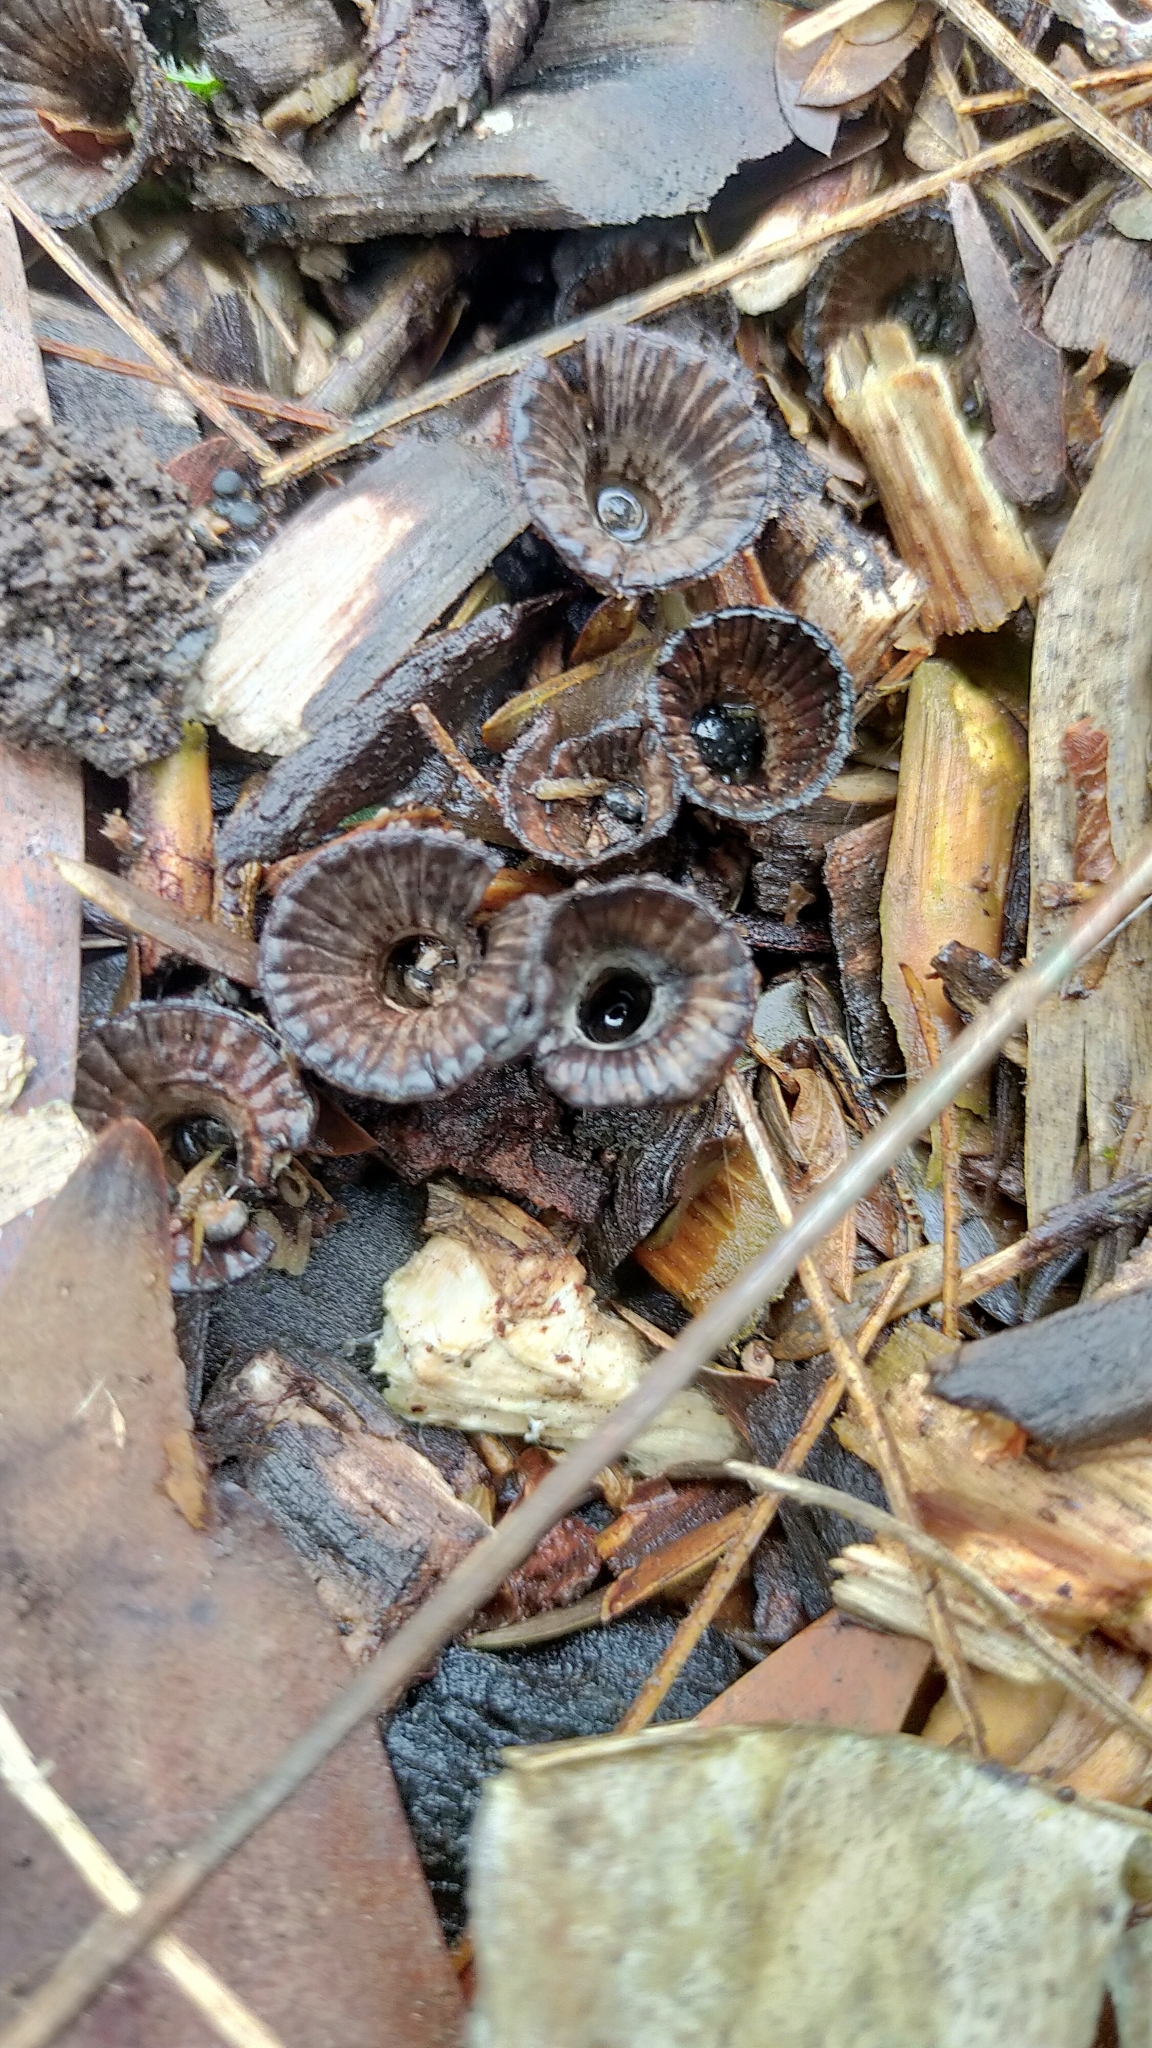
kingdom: Fungi
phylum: Basidiomycota
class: Agaricomycetes
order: Agaricales
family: Agaricaceae
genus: Cyathus
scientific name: Cyathus striatus
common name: Fluted bird's nest
